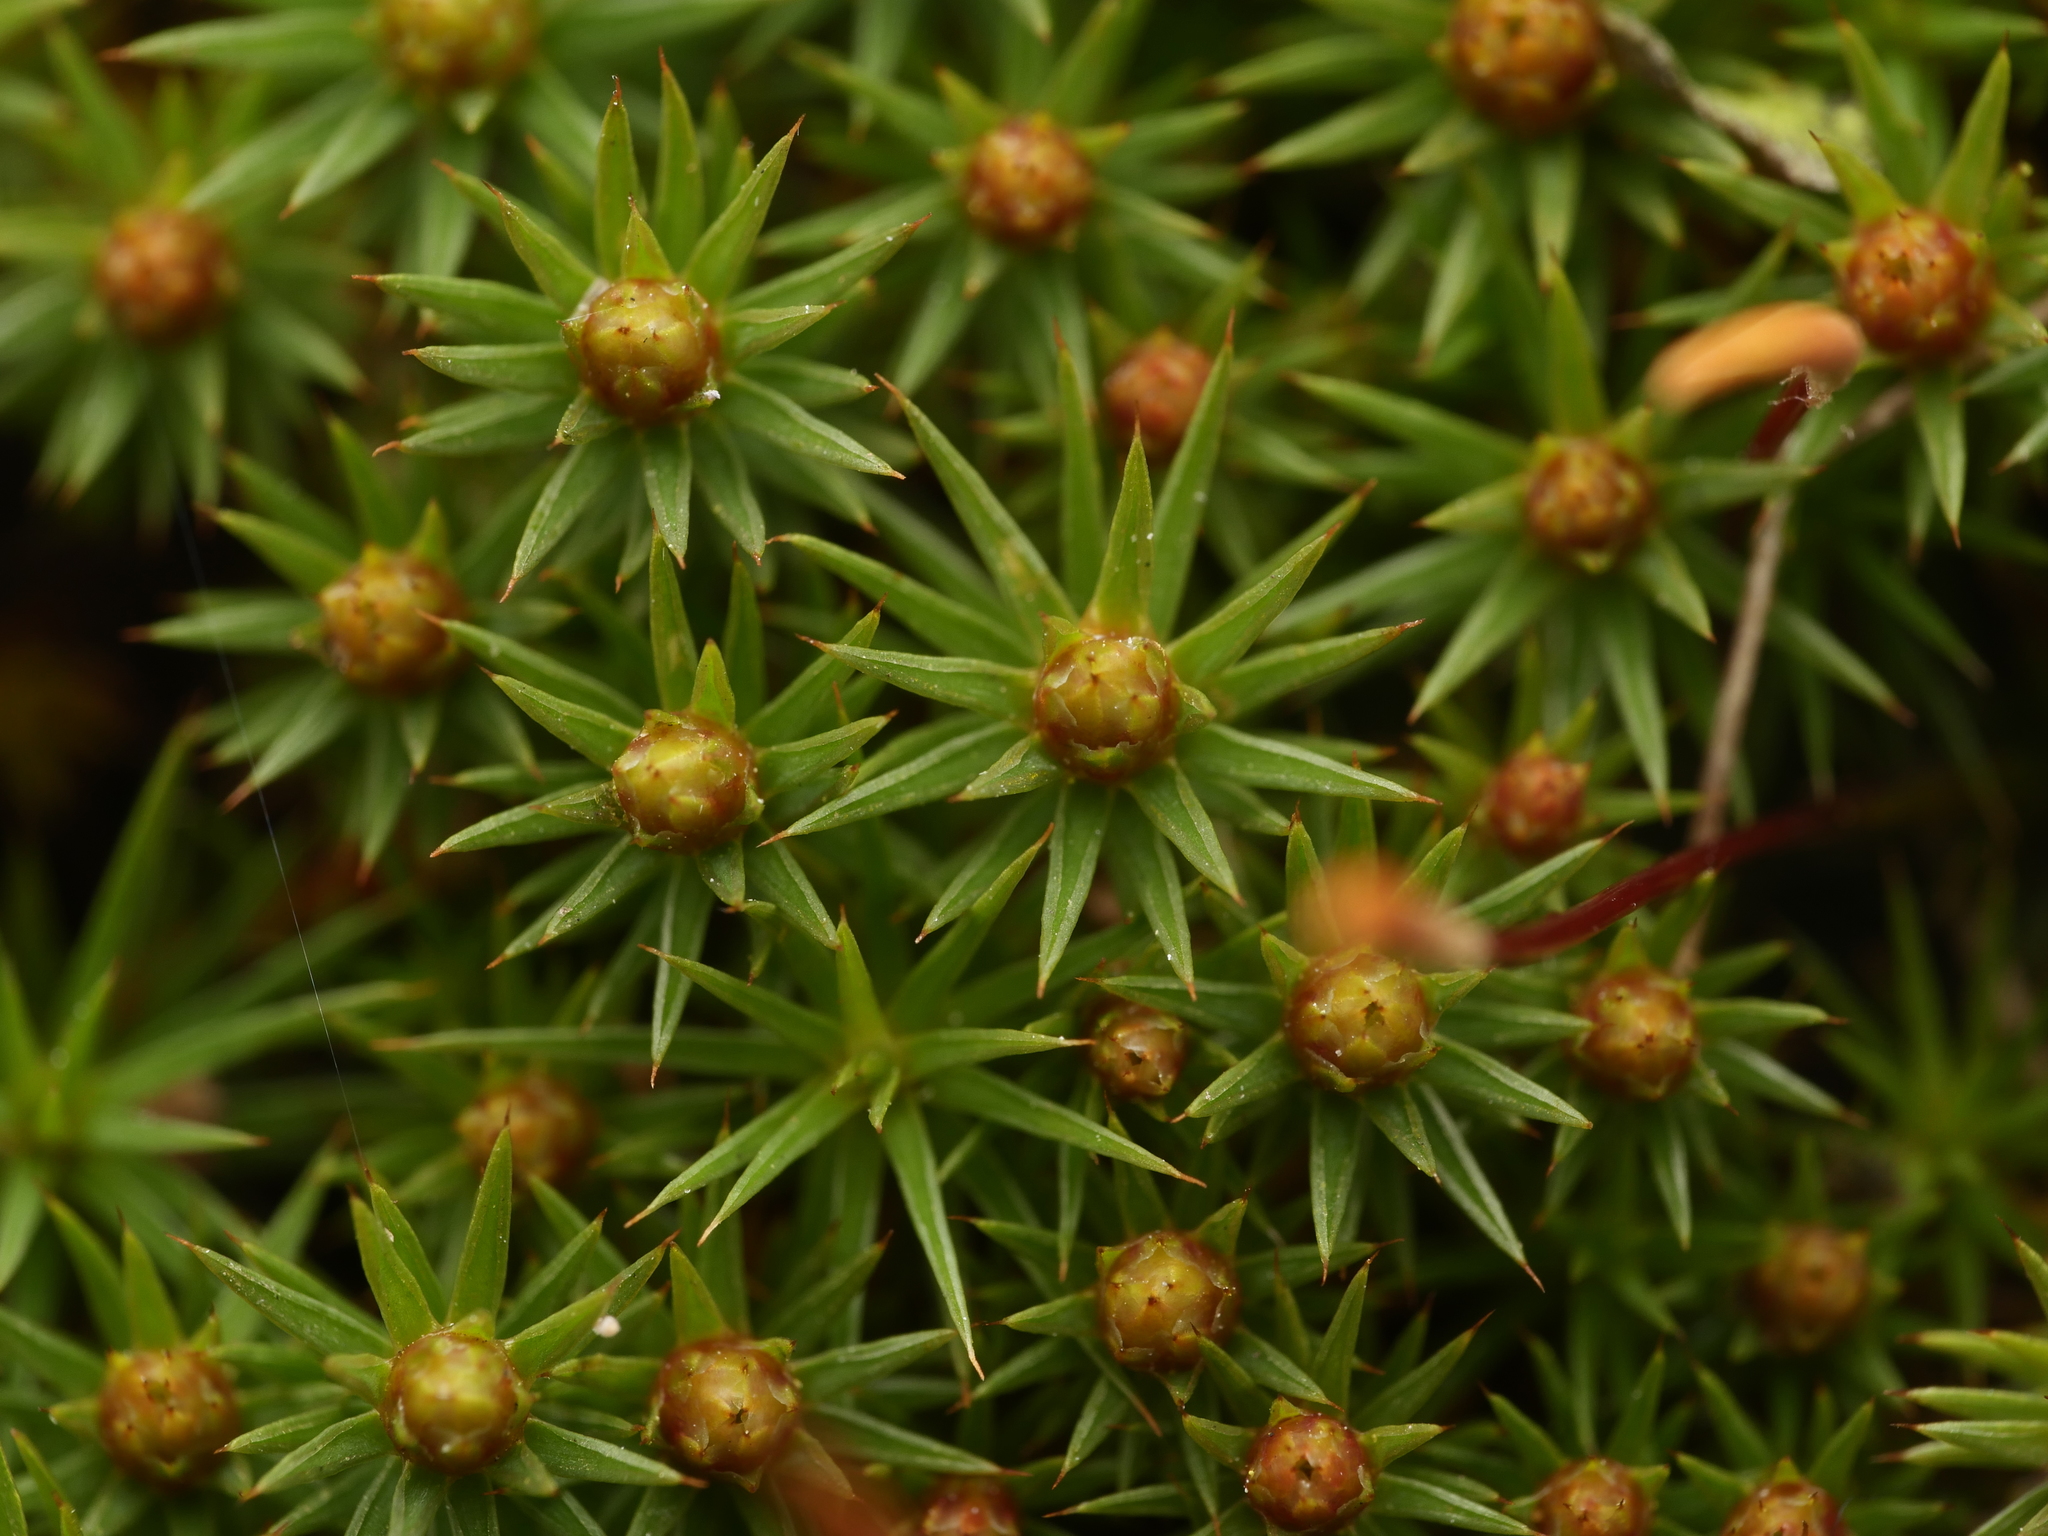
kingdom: Plantae
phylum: Bryophyta
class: Polytrichopsida
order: Polytrichales
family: Polytrichaceae
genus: Polytrichum
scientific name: Polytrichum juniperinum
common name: Juniper haircap moss
